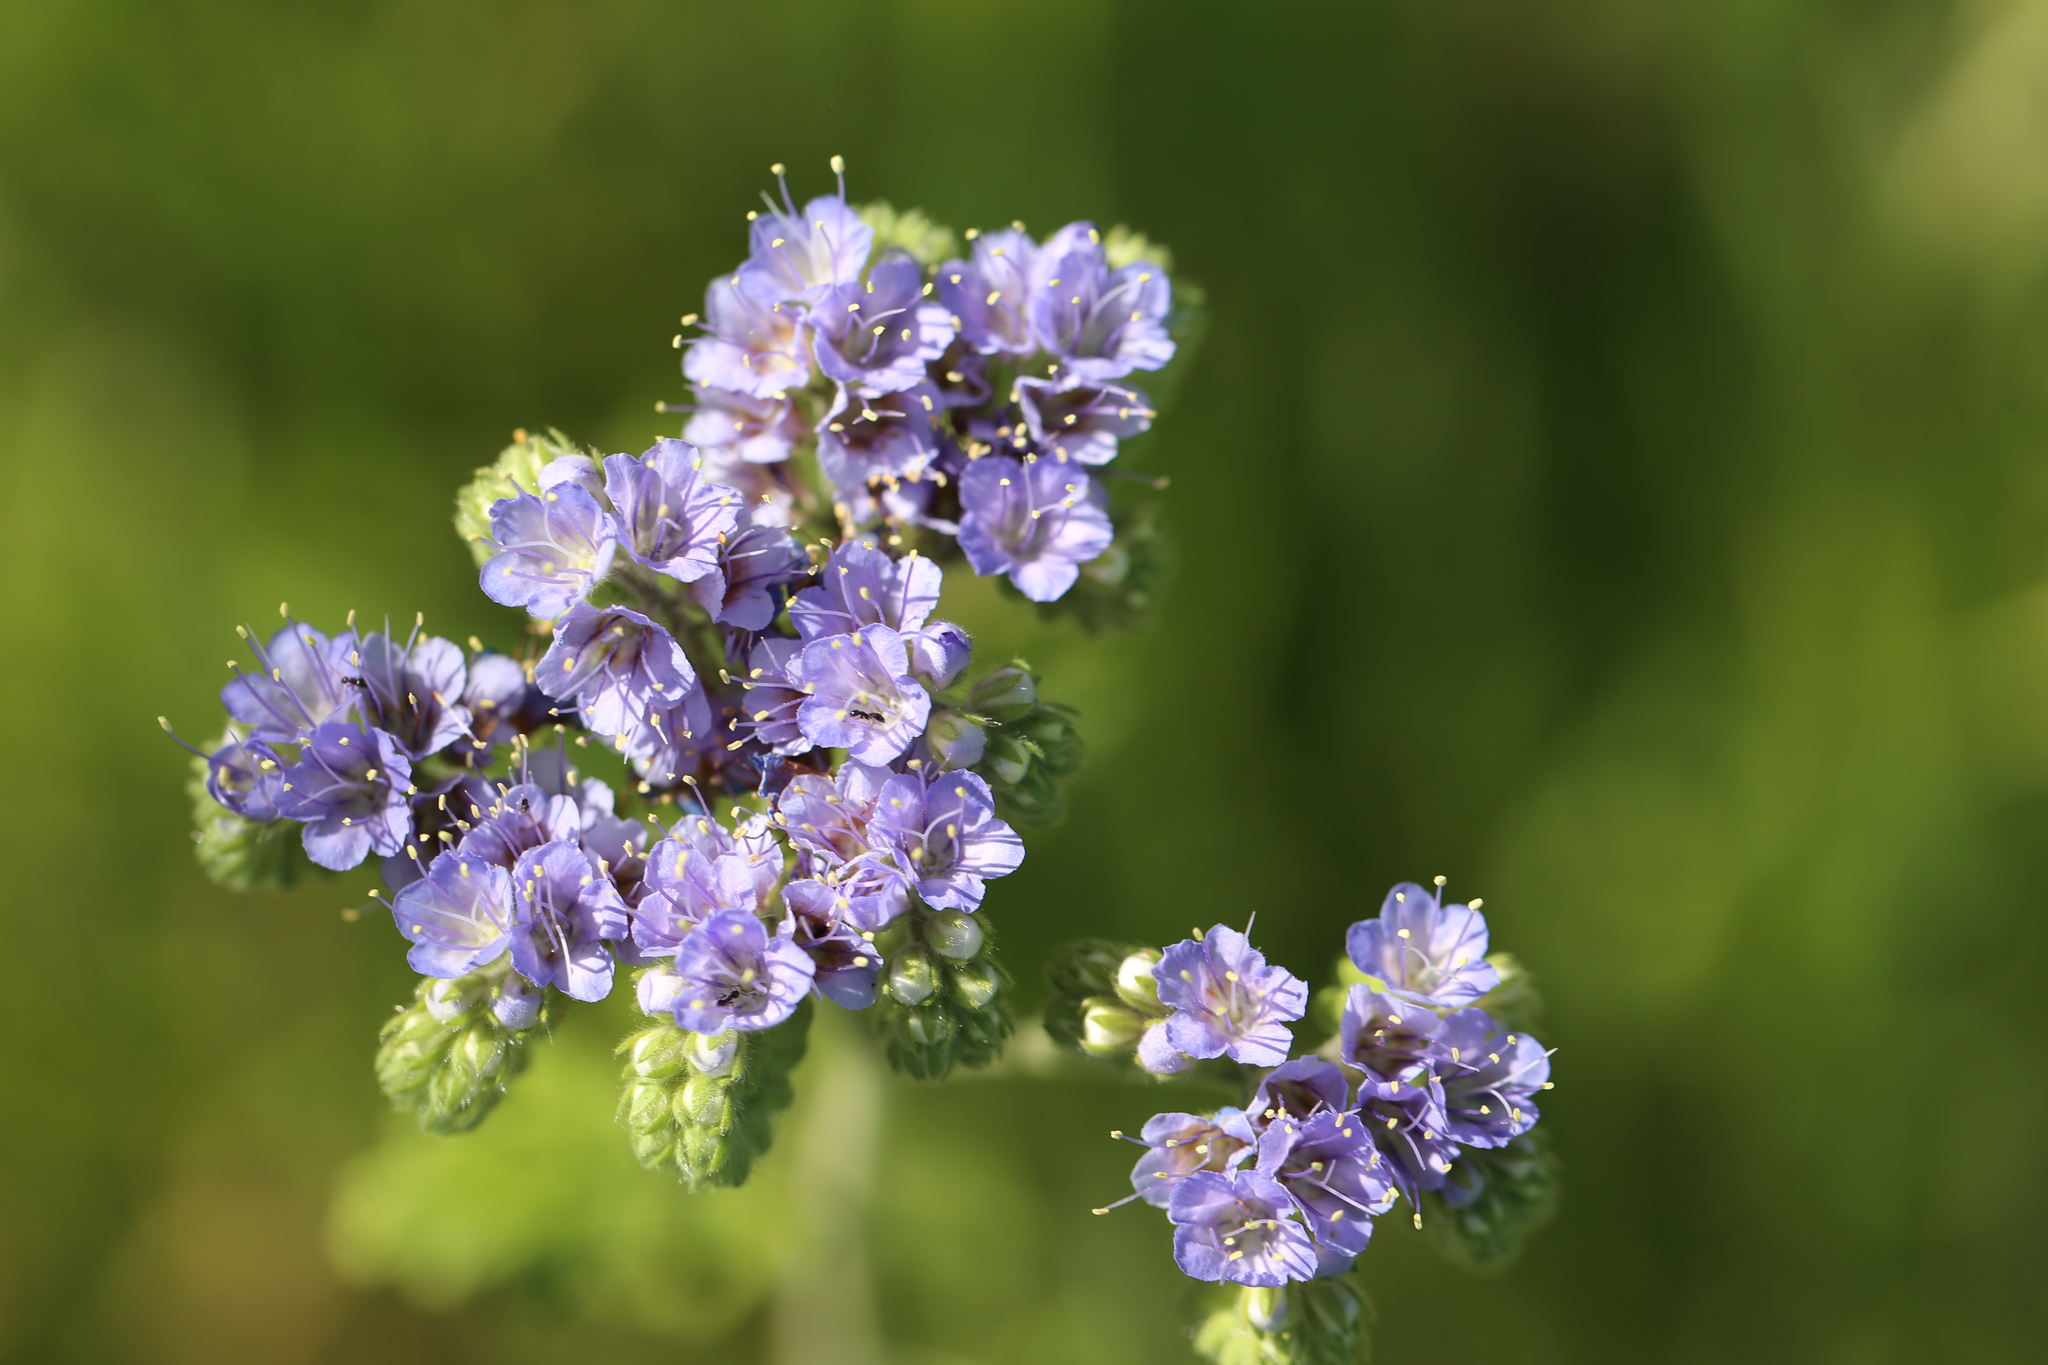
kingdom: Plantae
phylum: Tracheophyta
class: Magnoliopsida
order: Boraginales
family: Hydrophyllaceae
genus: Phacelia
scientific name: Phacelia congesta
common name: Blue curls
